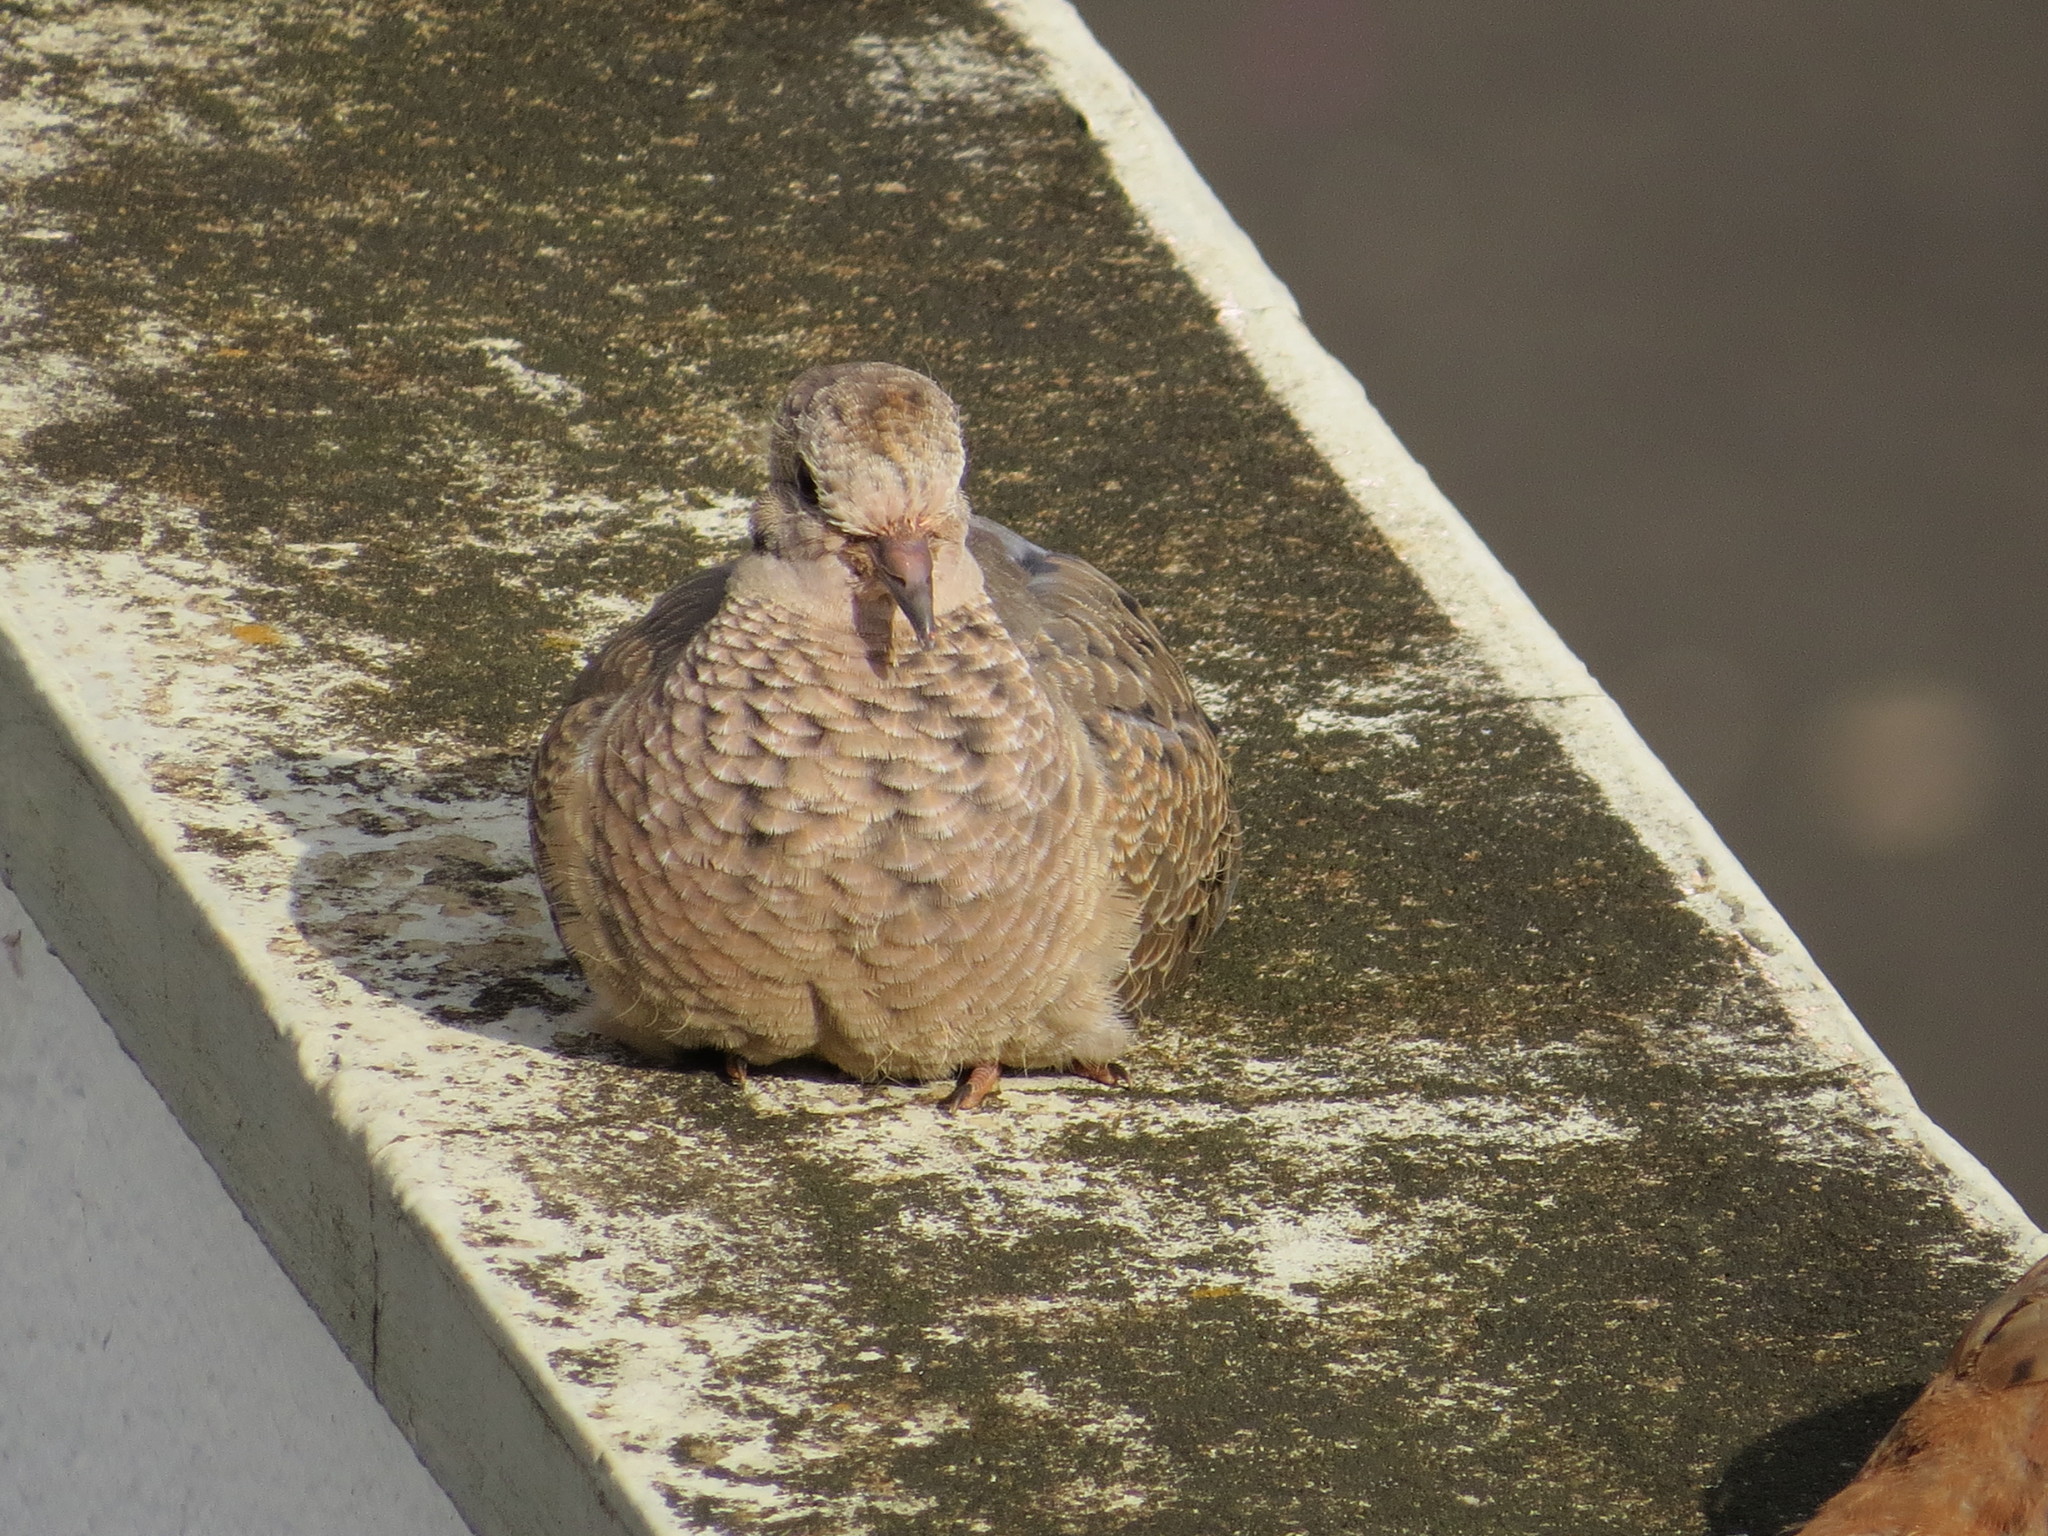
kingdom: Animalia
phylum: Chordata
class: Aves
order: Columbiformes
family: Columbidae
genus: Zenaida
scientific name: Zenaida auriculata
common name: Eared dove
